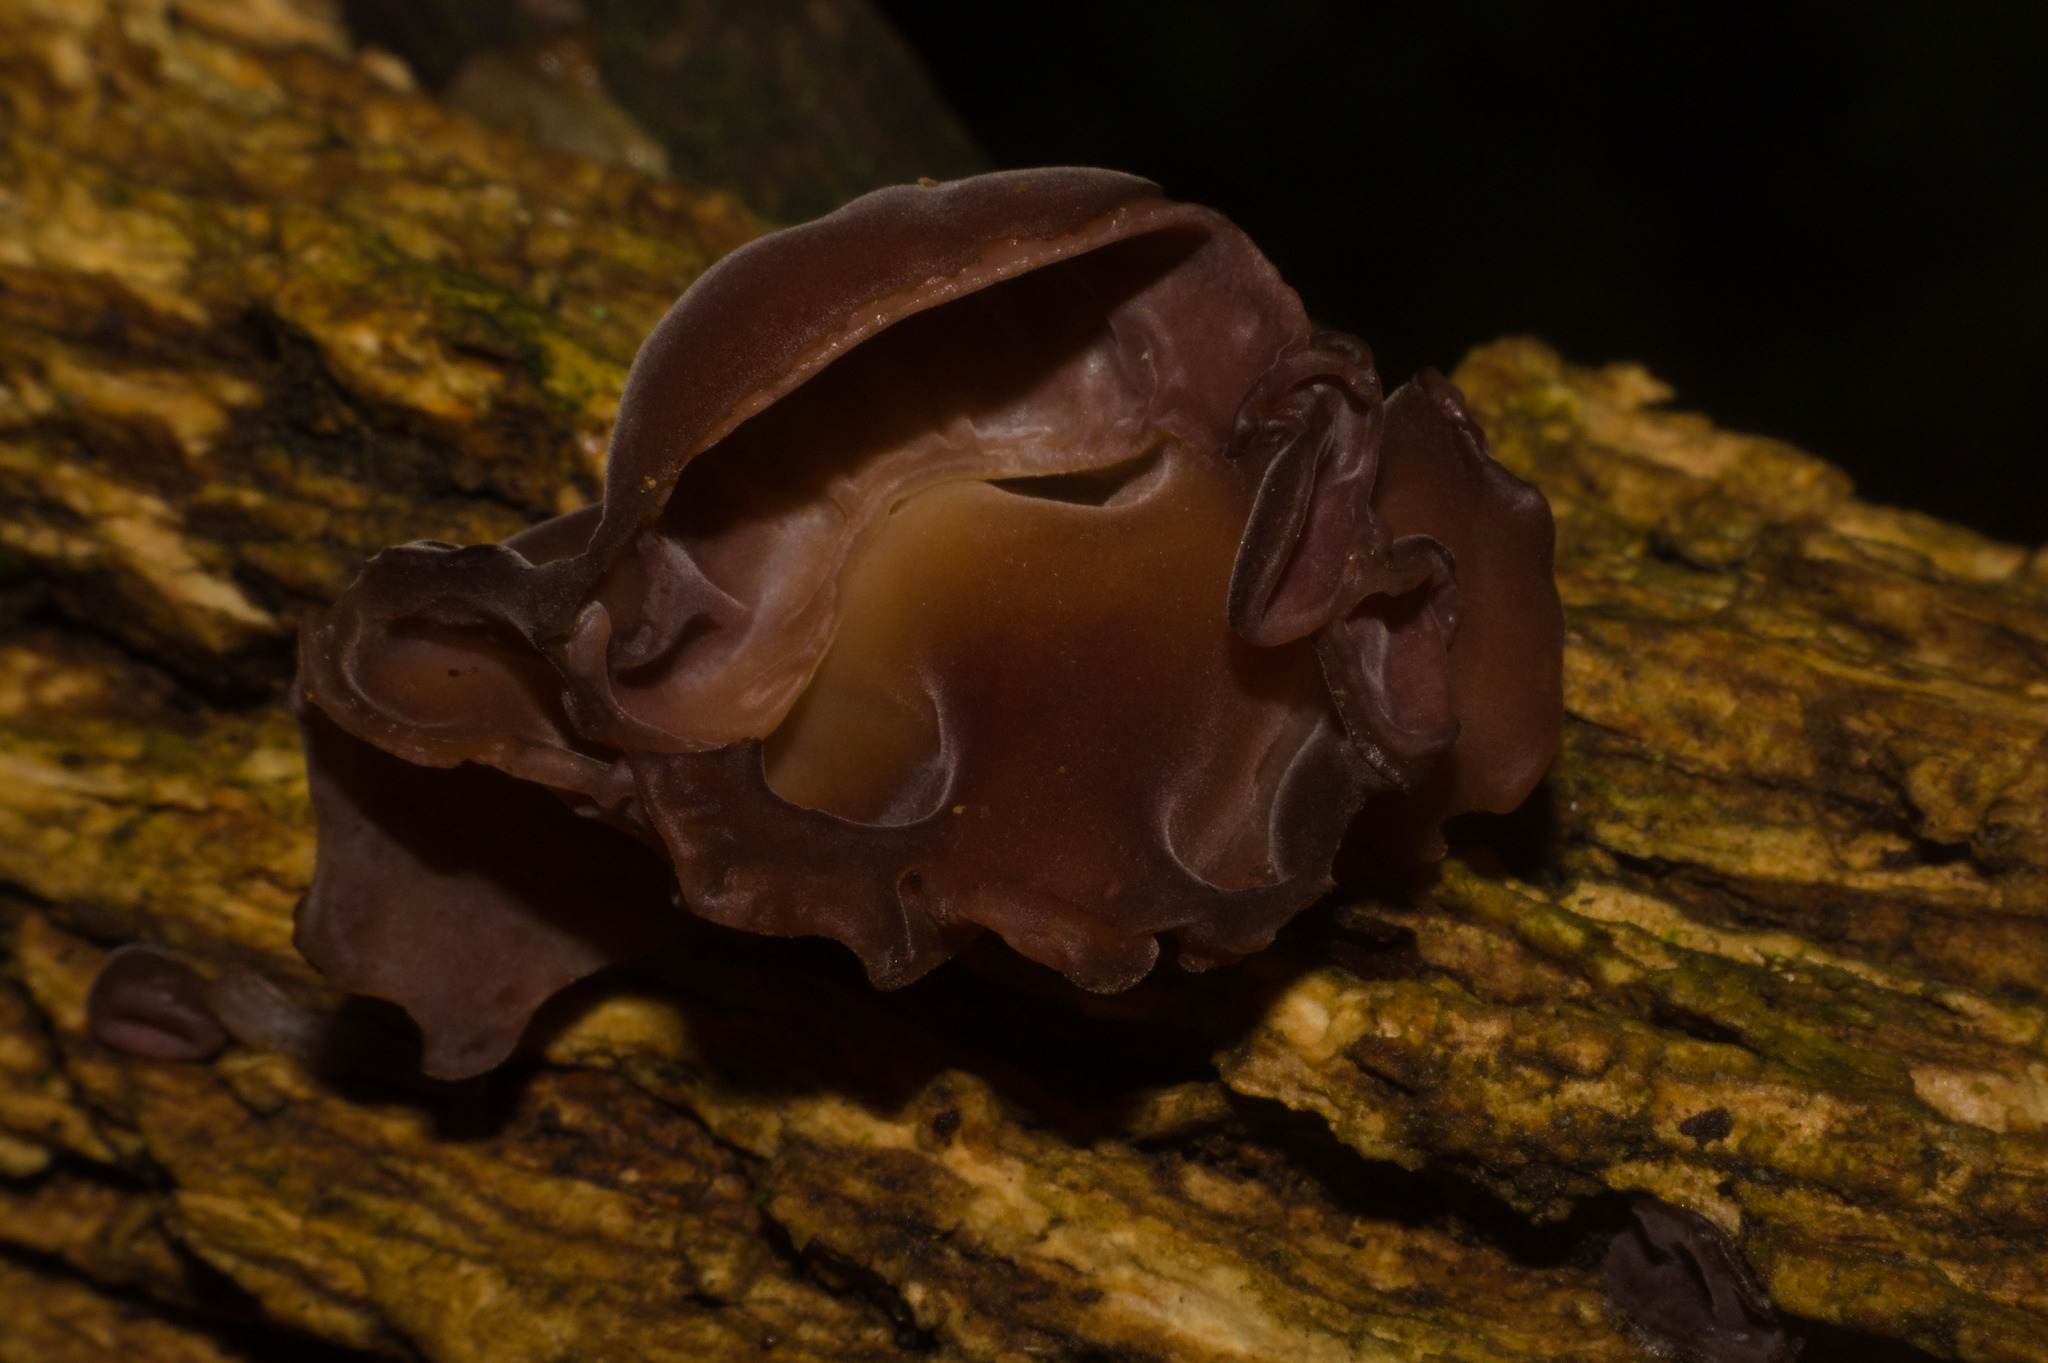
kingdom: Fungi
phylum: Basidiomycota
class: Agaricomycetes
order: Auriculariales
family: Auriculariaceae
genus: Auricularia
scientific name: Auricularia fuscosuccinea
